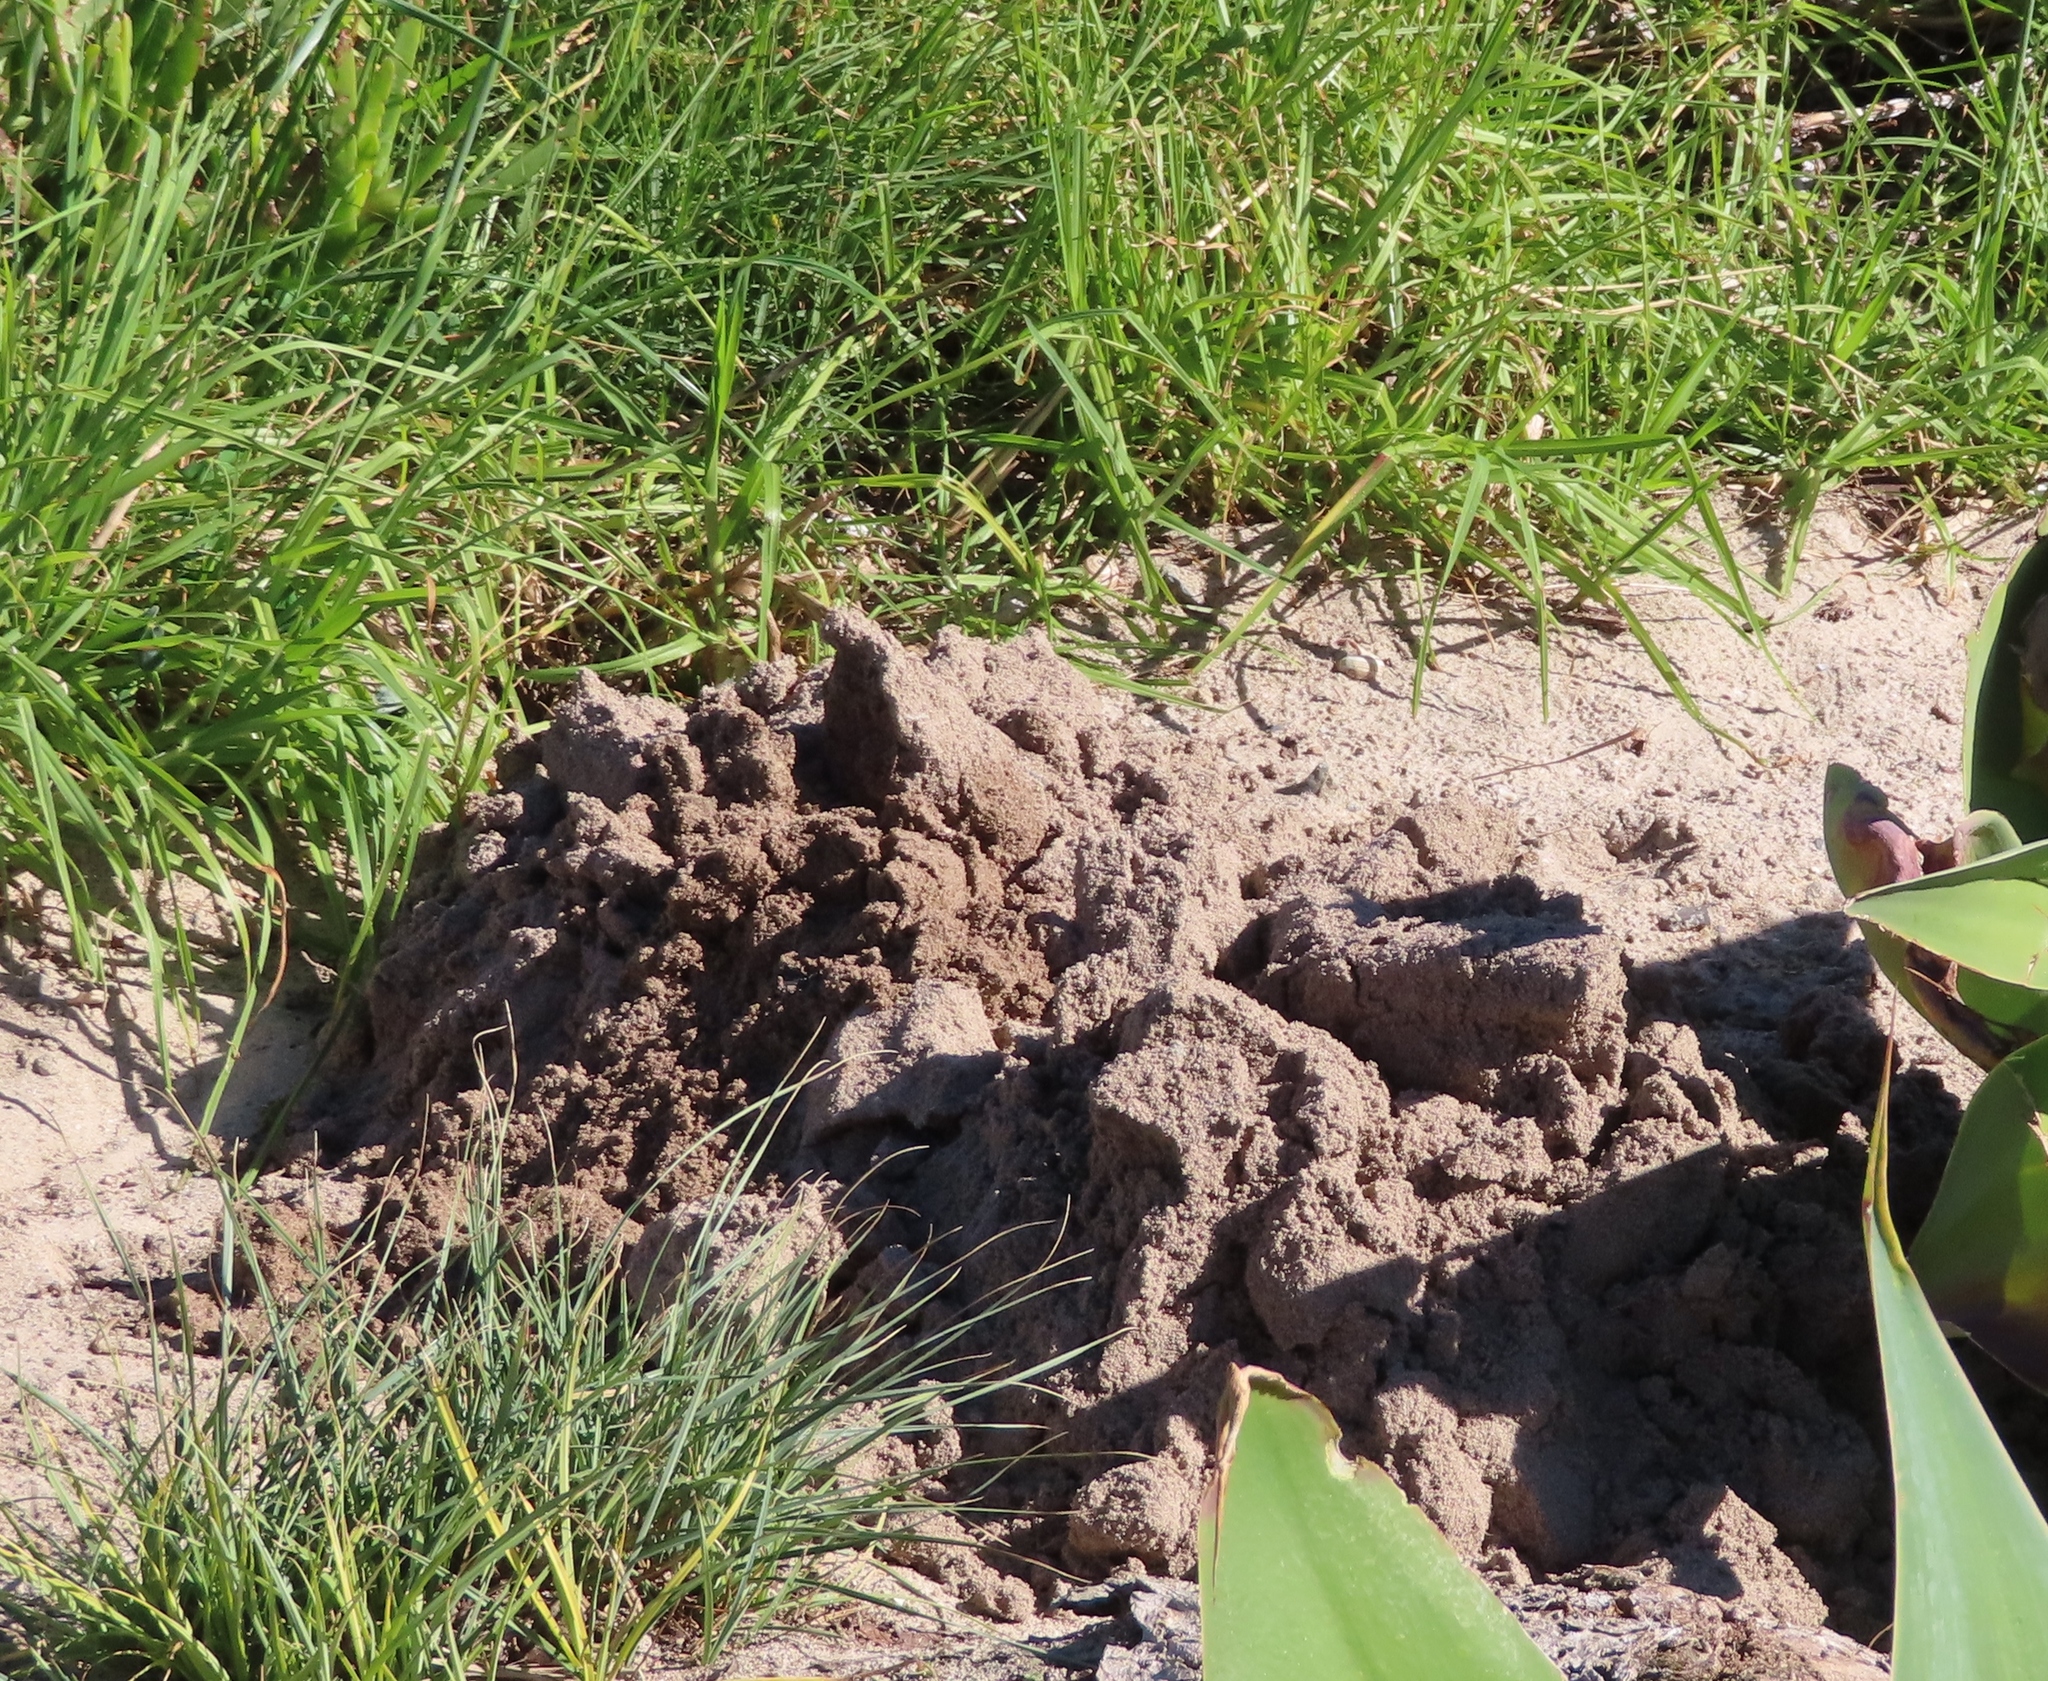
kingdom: Animalia
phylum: Chordata
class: Mammalia
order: Rodentia
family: Bathyergidae
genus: Bathyergus
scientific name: Bathyergus suillus
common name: Cape dune mole rat
